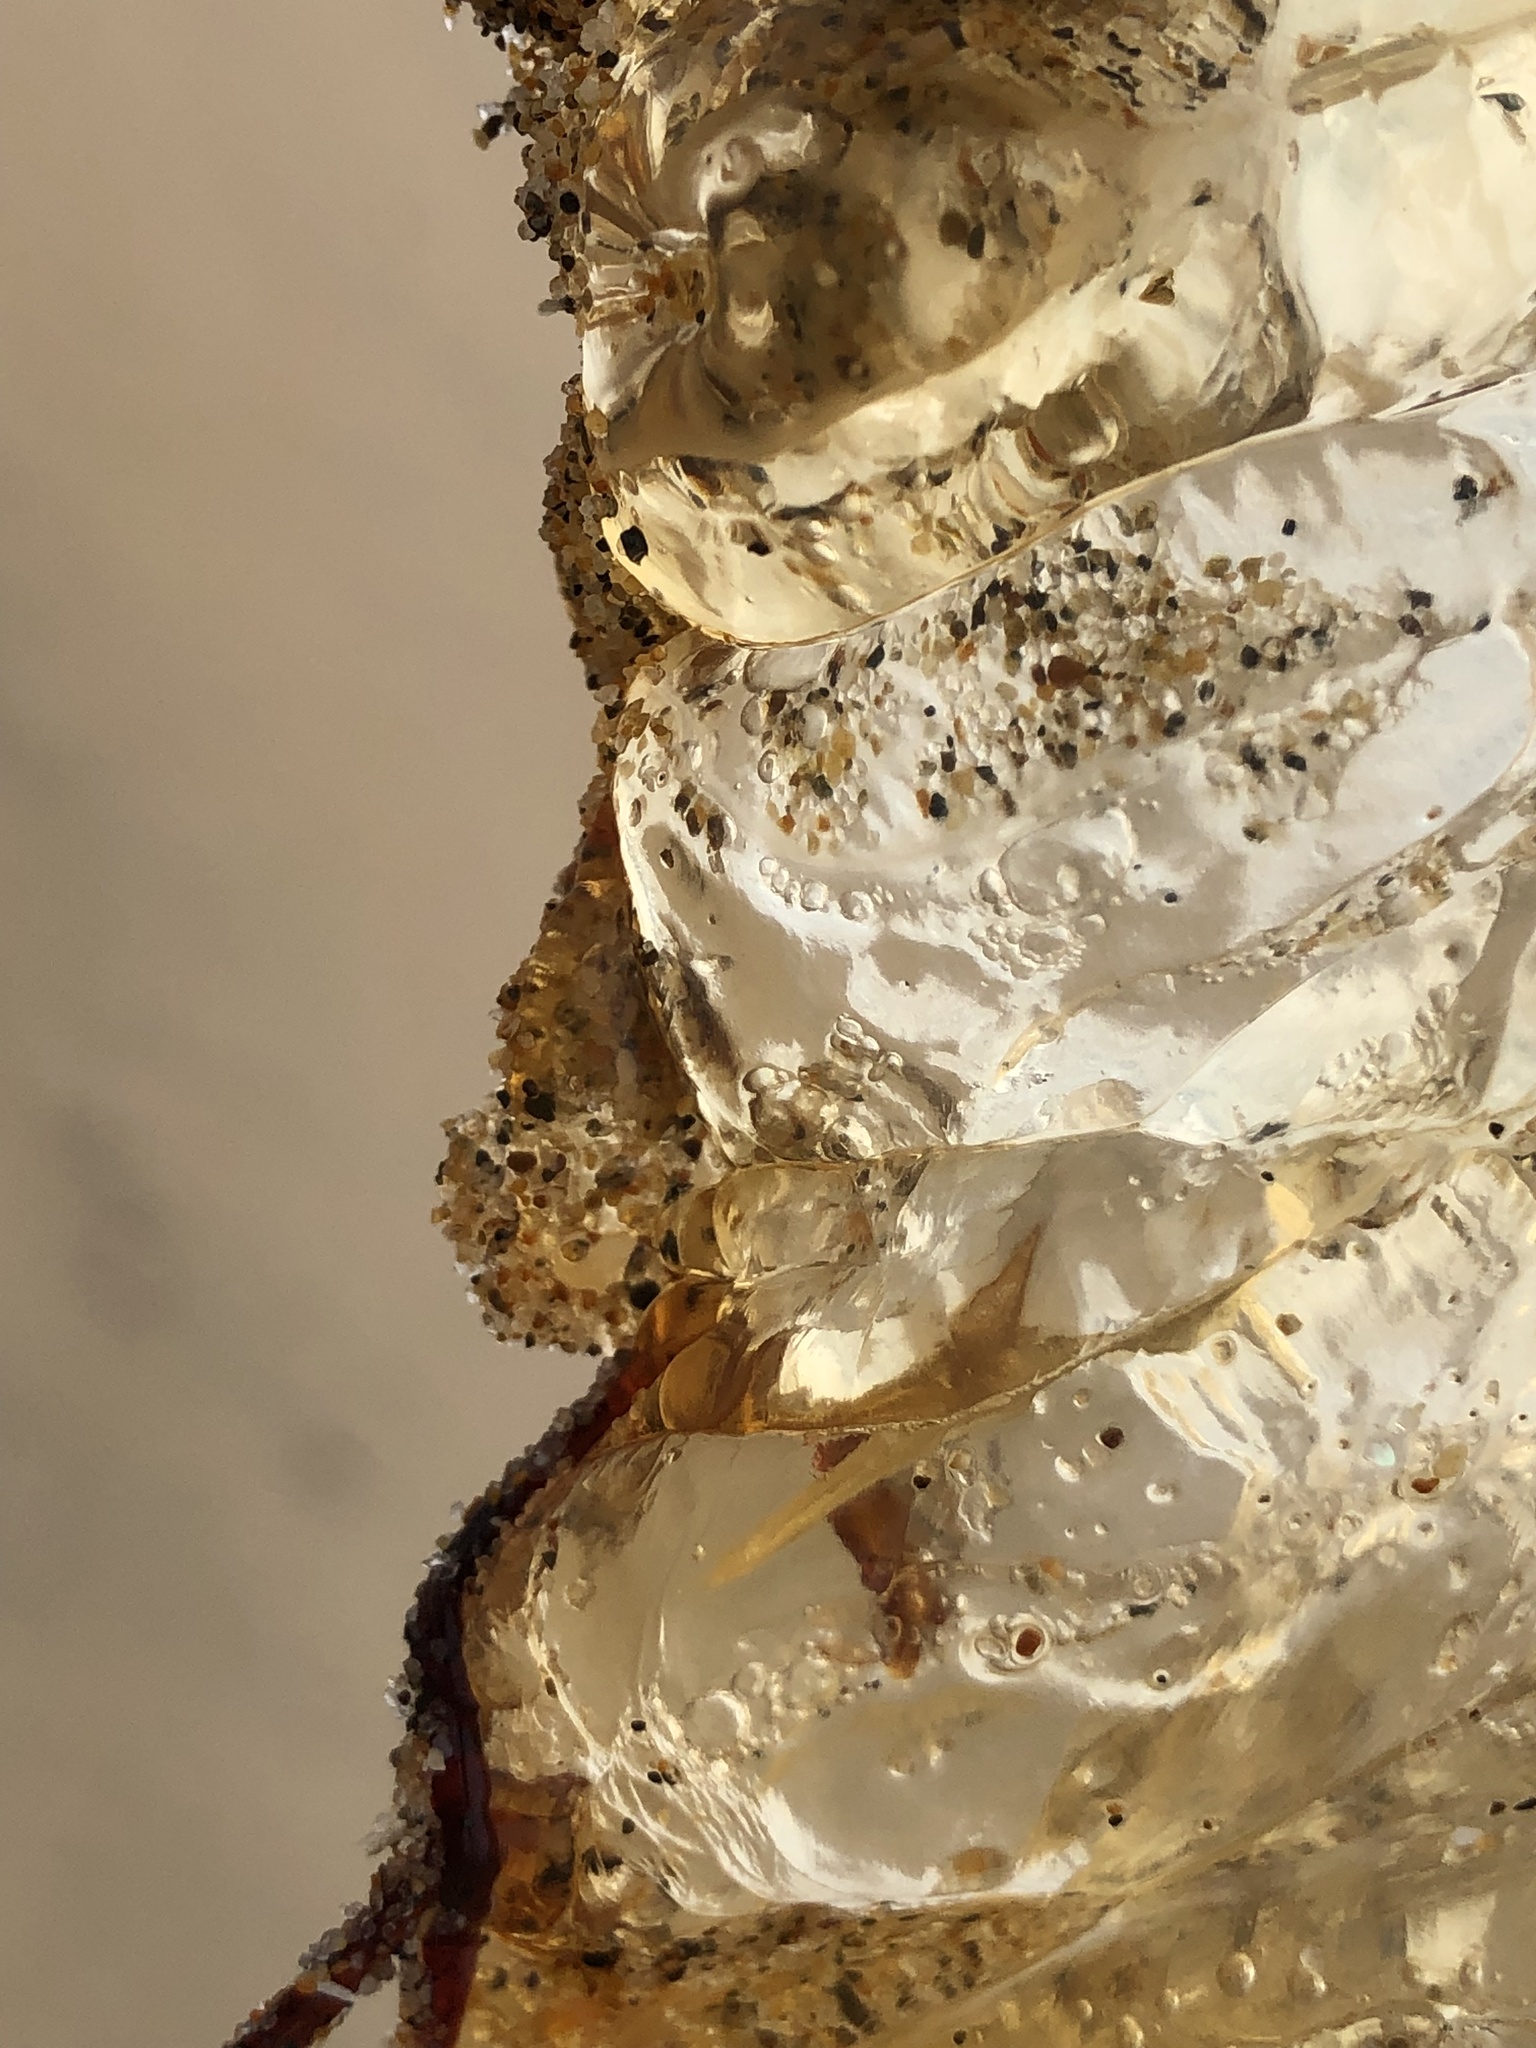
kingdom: Animalia
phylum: Cnidaria
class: Scyphozoa
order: Semaeostomeae
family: Pelagiidae
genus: Chrysaora
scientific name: Chrysaora fuscescens
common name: Sea nettle
